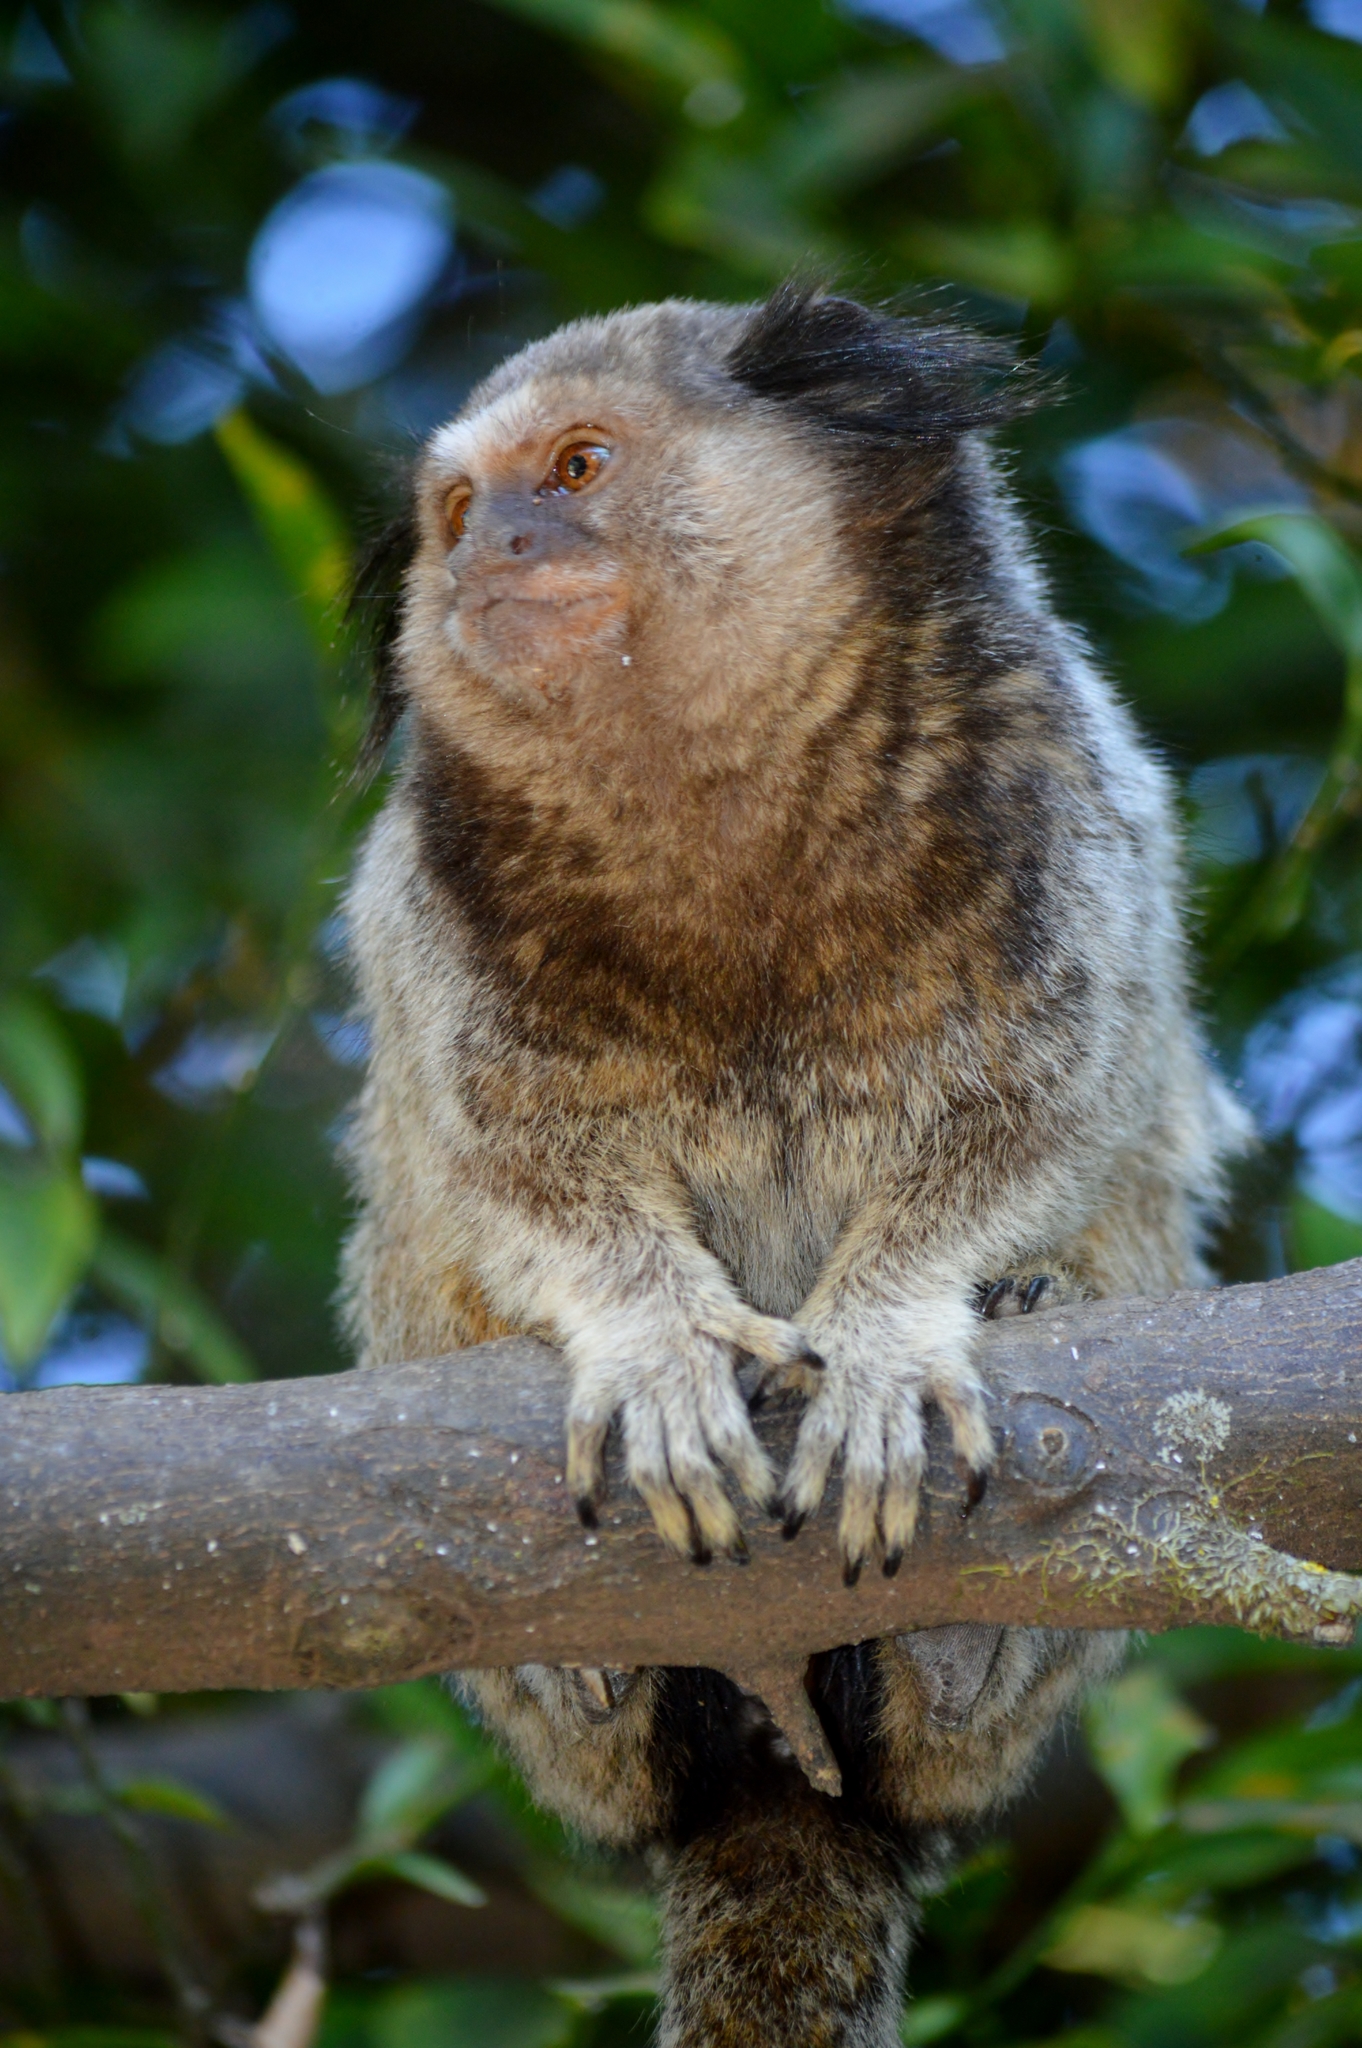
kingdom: Animalia
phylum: Chordata
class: Mammalia
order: Primates
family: Callitrichidae
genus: Callithrix
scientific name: Callithrix penicillata
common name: Black-tufted marmoset
